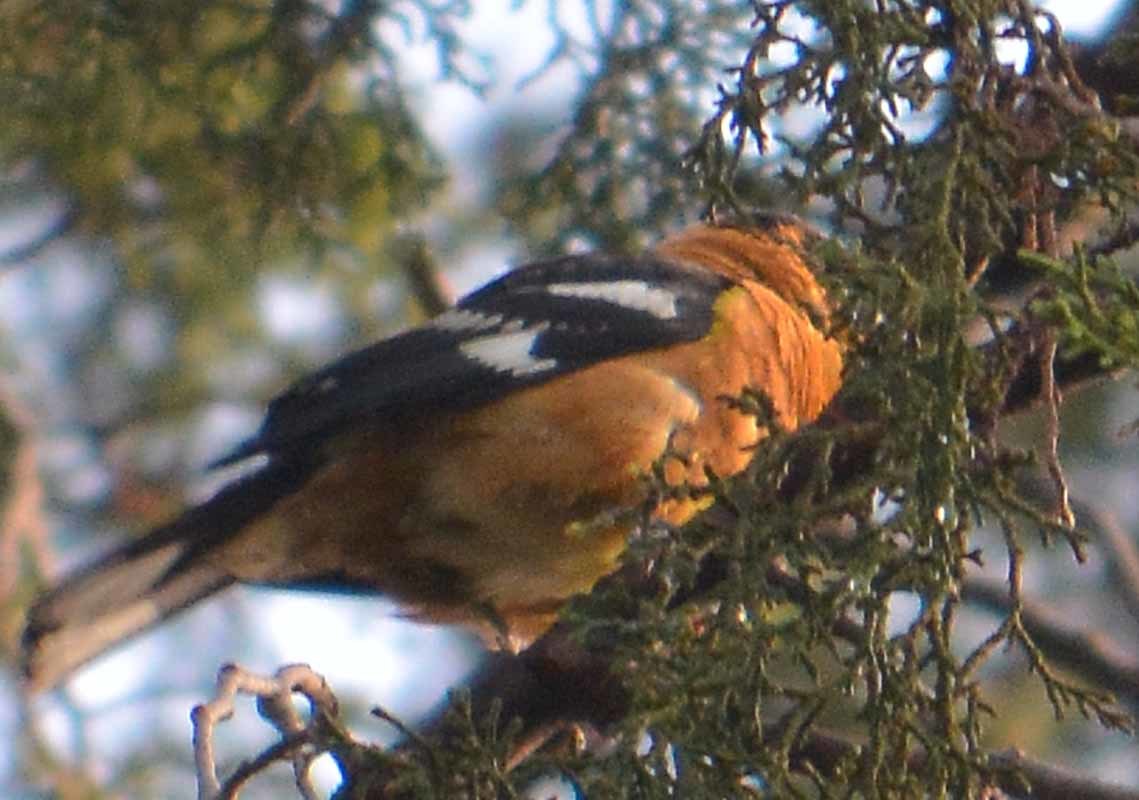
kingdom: Animalia
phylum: Chordata
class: Aves
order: Passeriformes
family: Cardinalidae
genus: Pheucticus
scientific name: Pheucticus melanocephalus
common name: Black-headed grosbeak
